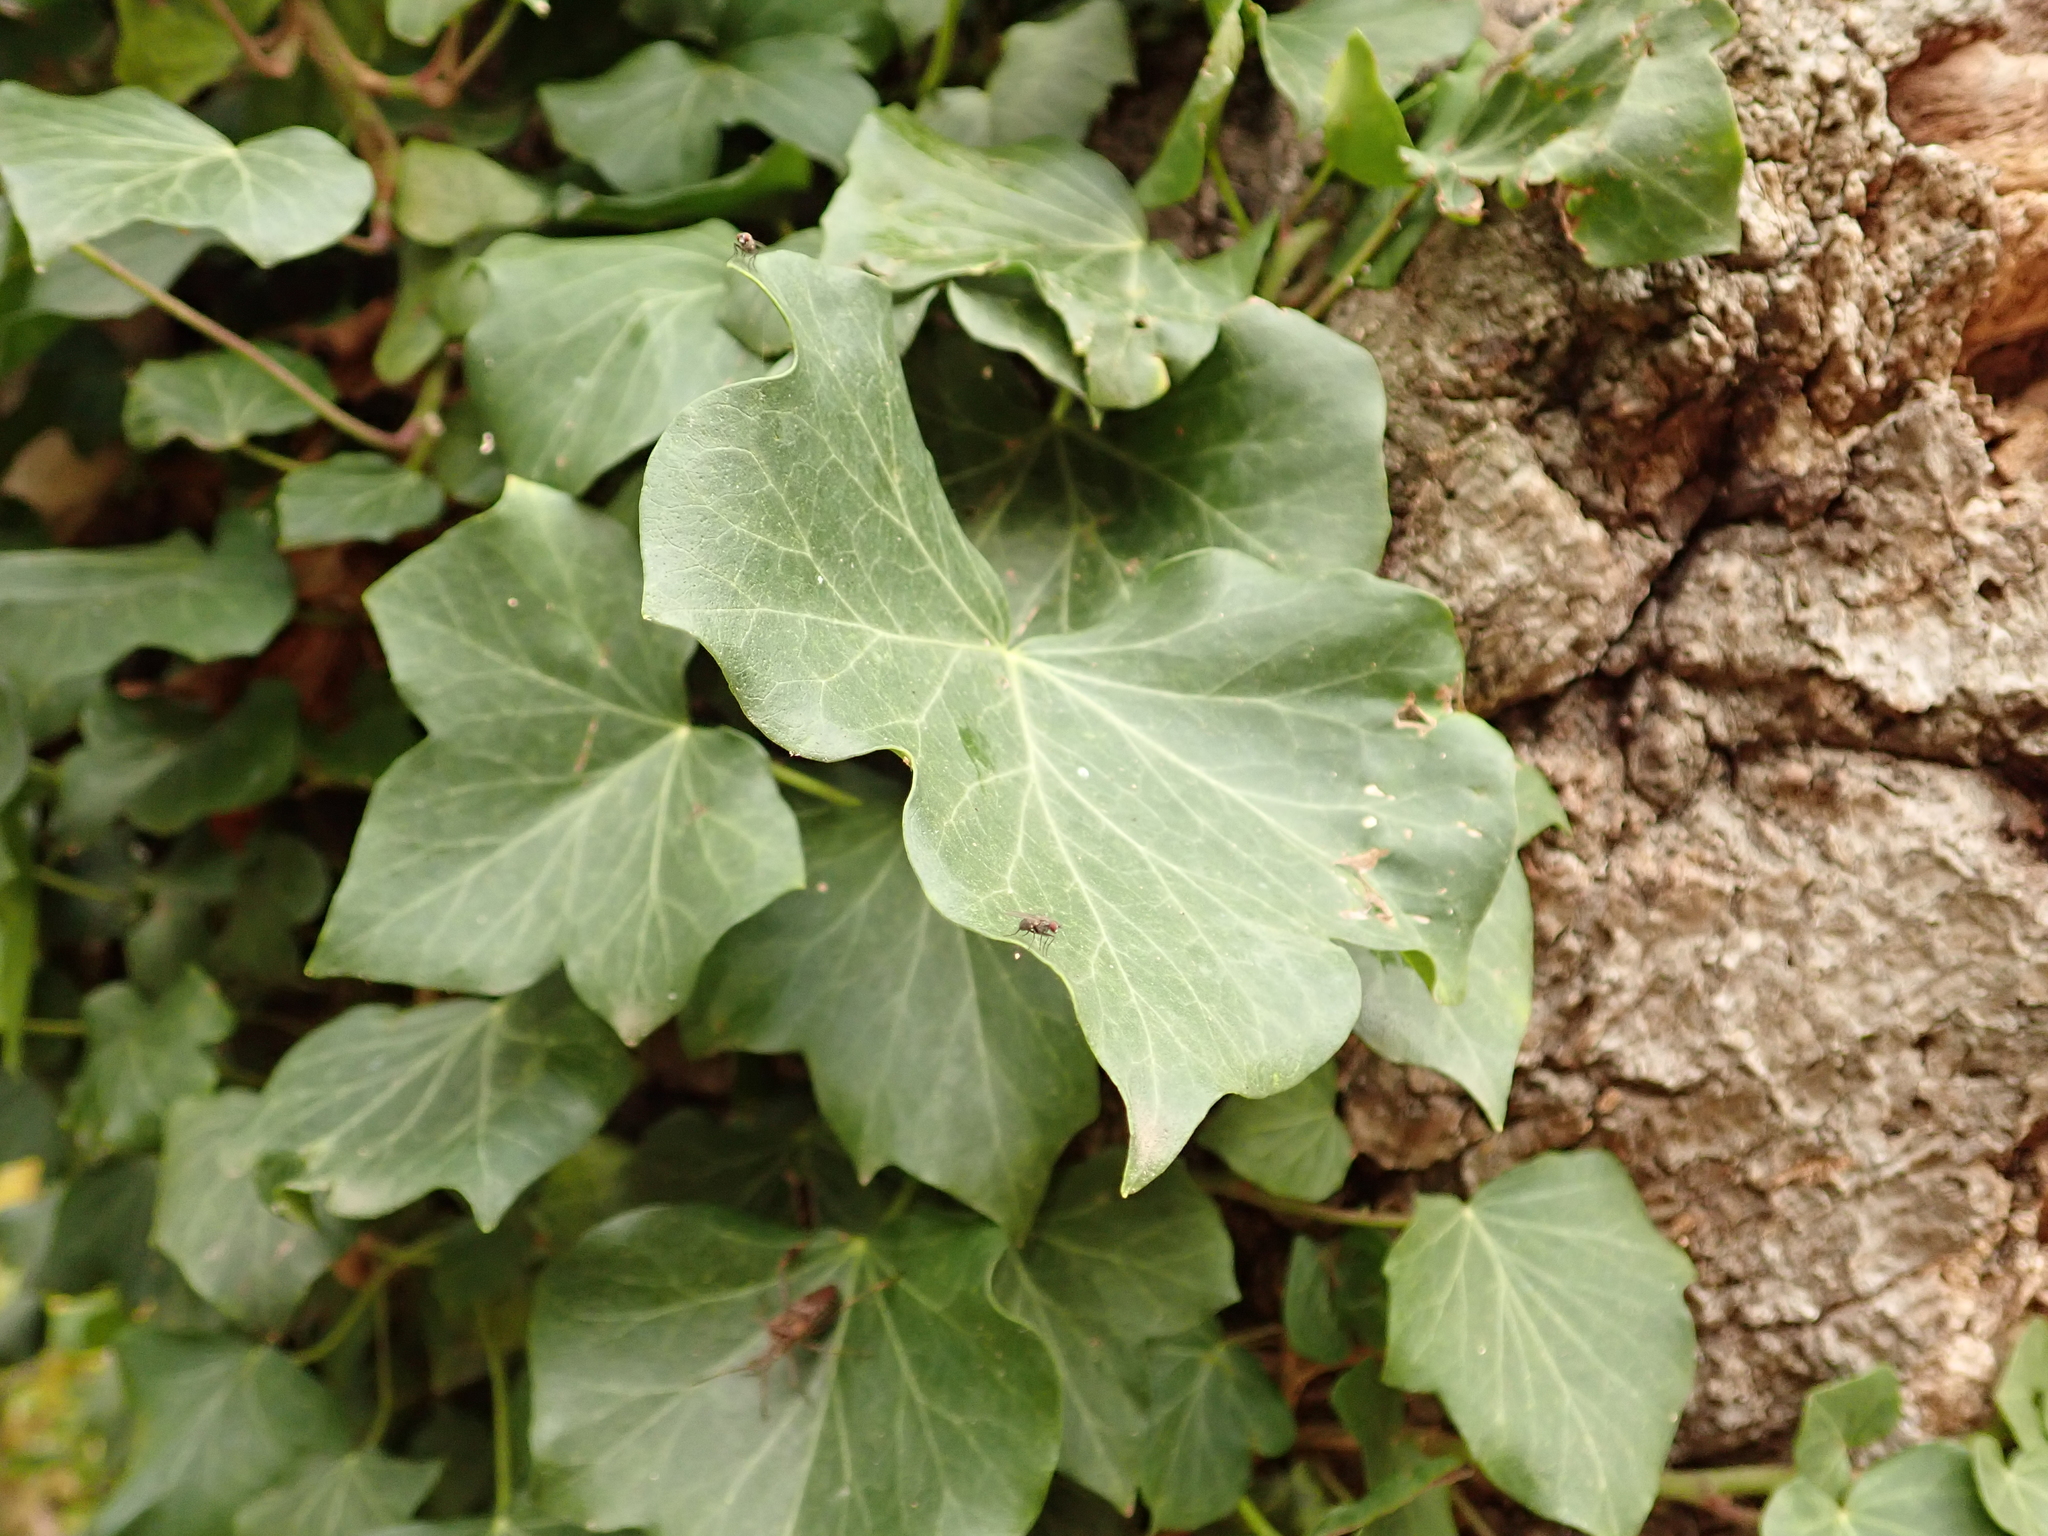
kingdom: Plantae
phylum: Tracheophyta
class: Magnoliopsida
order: Apiales
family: Araliaceae
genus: Hedera
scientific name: Hedera helix
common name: Ivy
